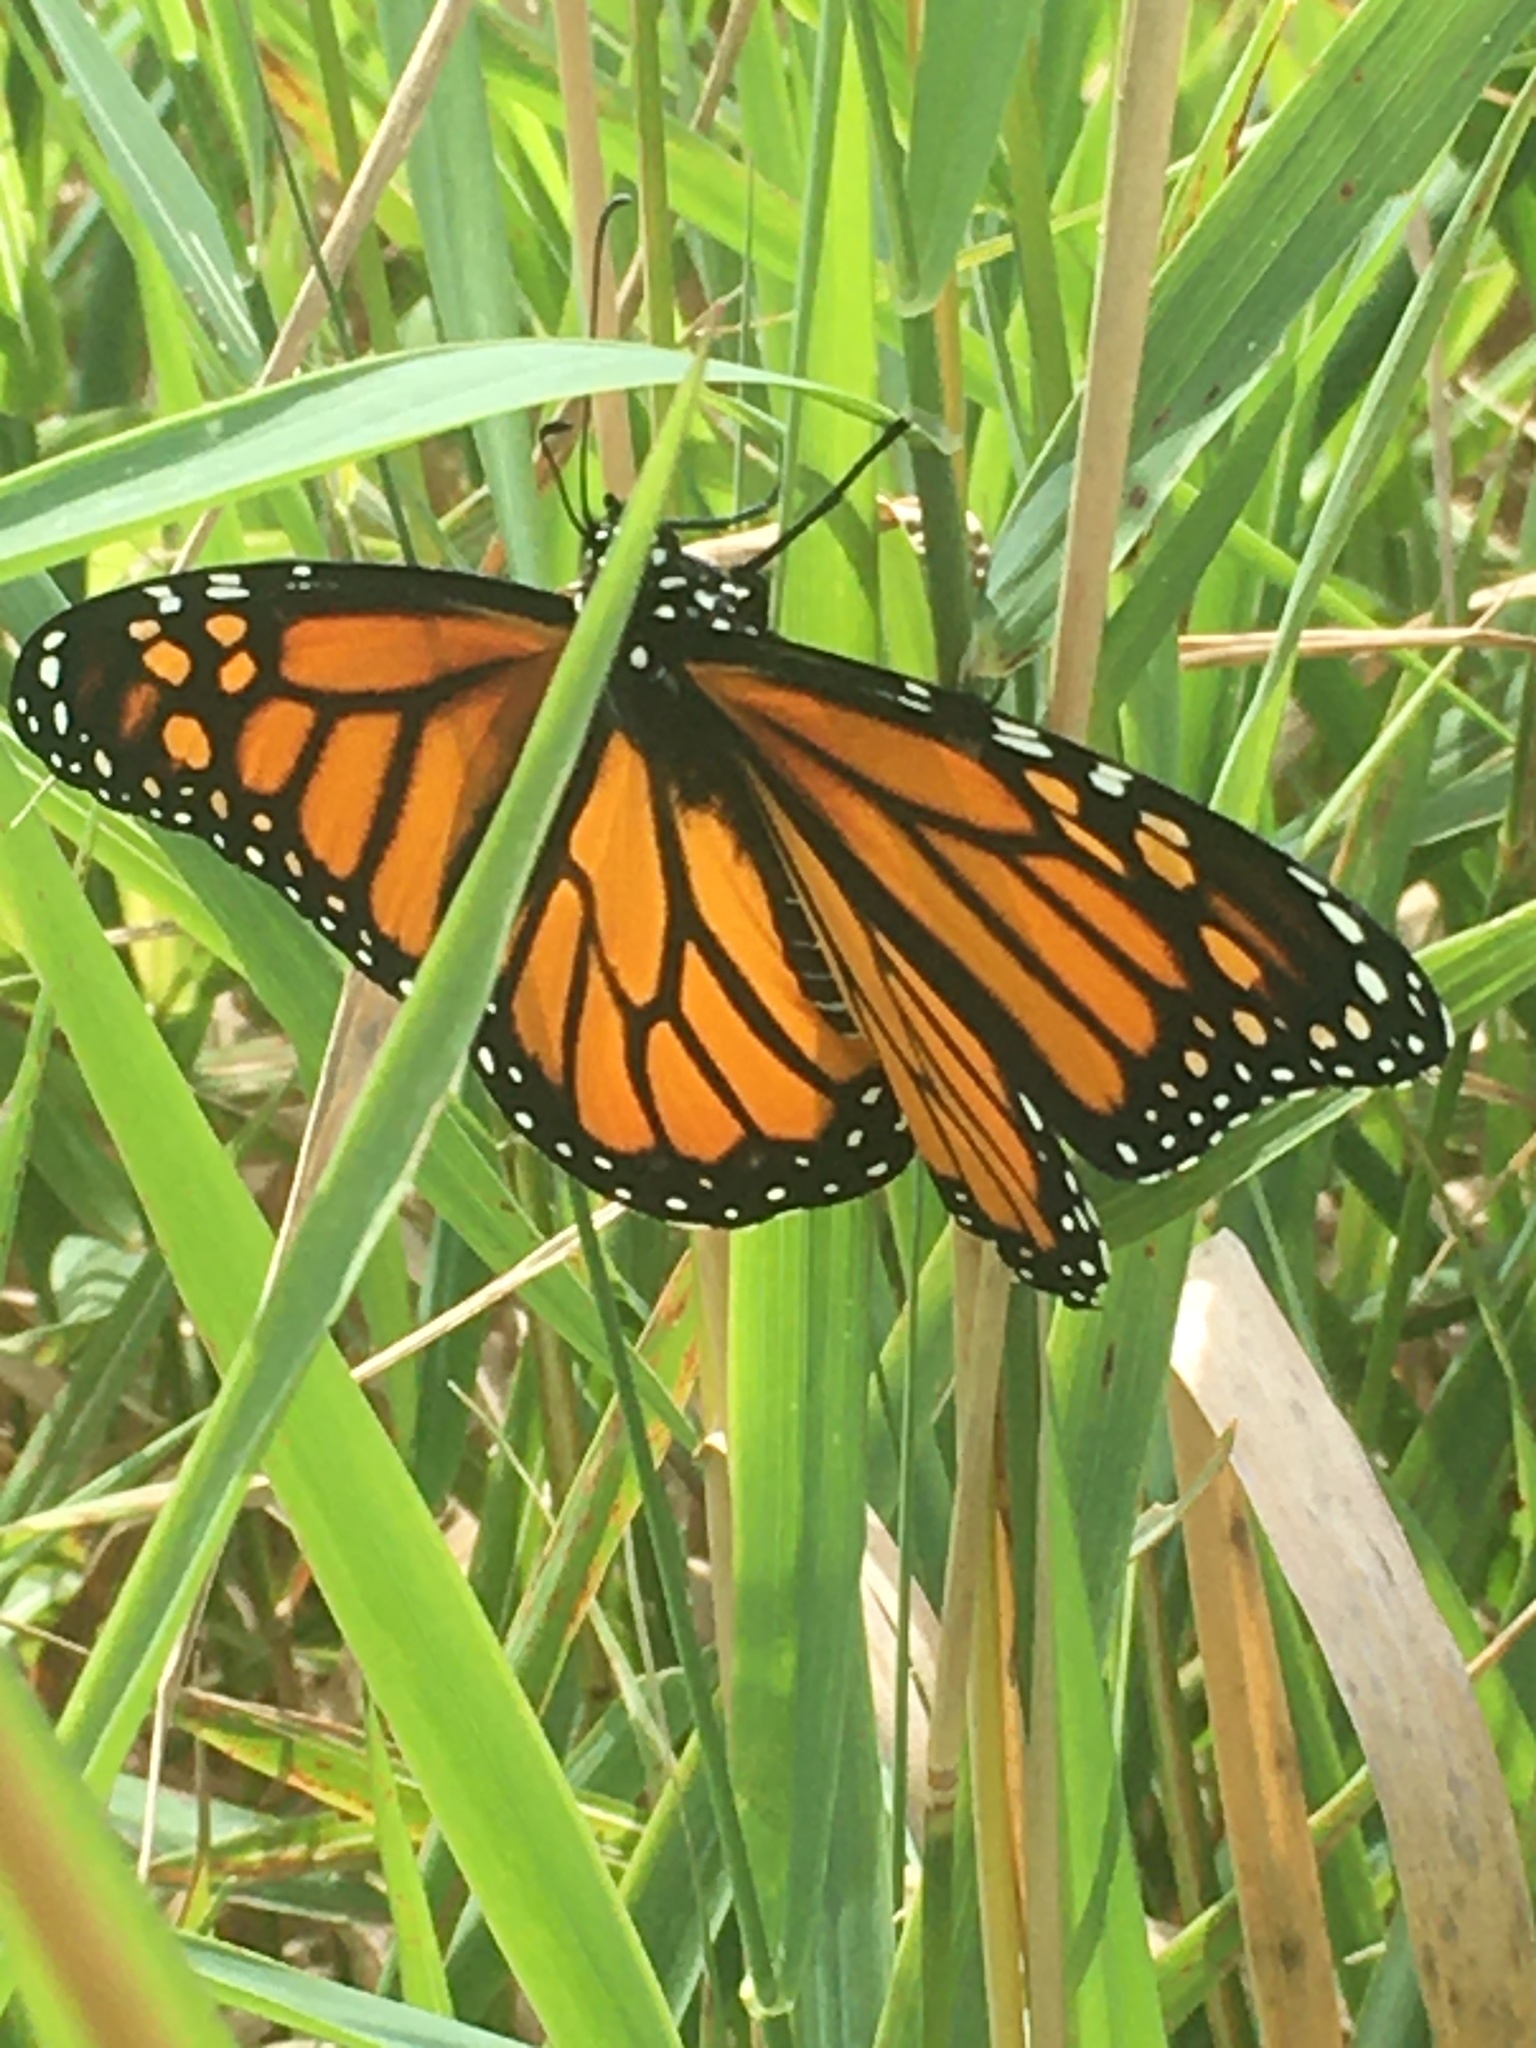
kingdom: Animalia
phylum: Arthropoda
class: Insecta
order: Lepidoptera
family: Nymphalidae
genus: Danaus
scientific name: Danaus plexippus
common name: Monarch
